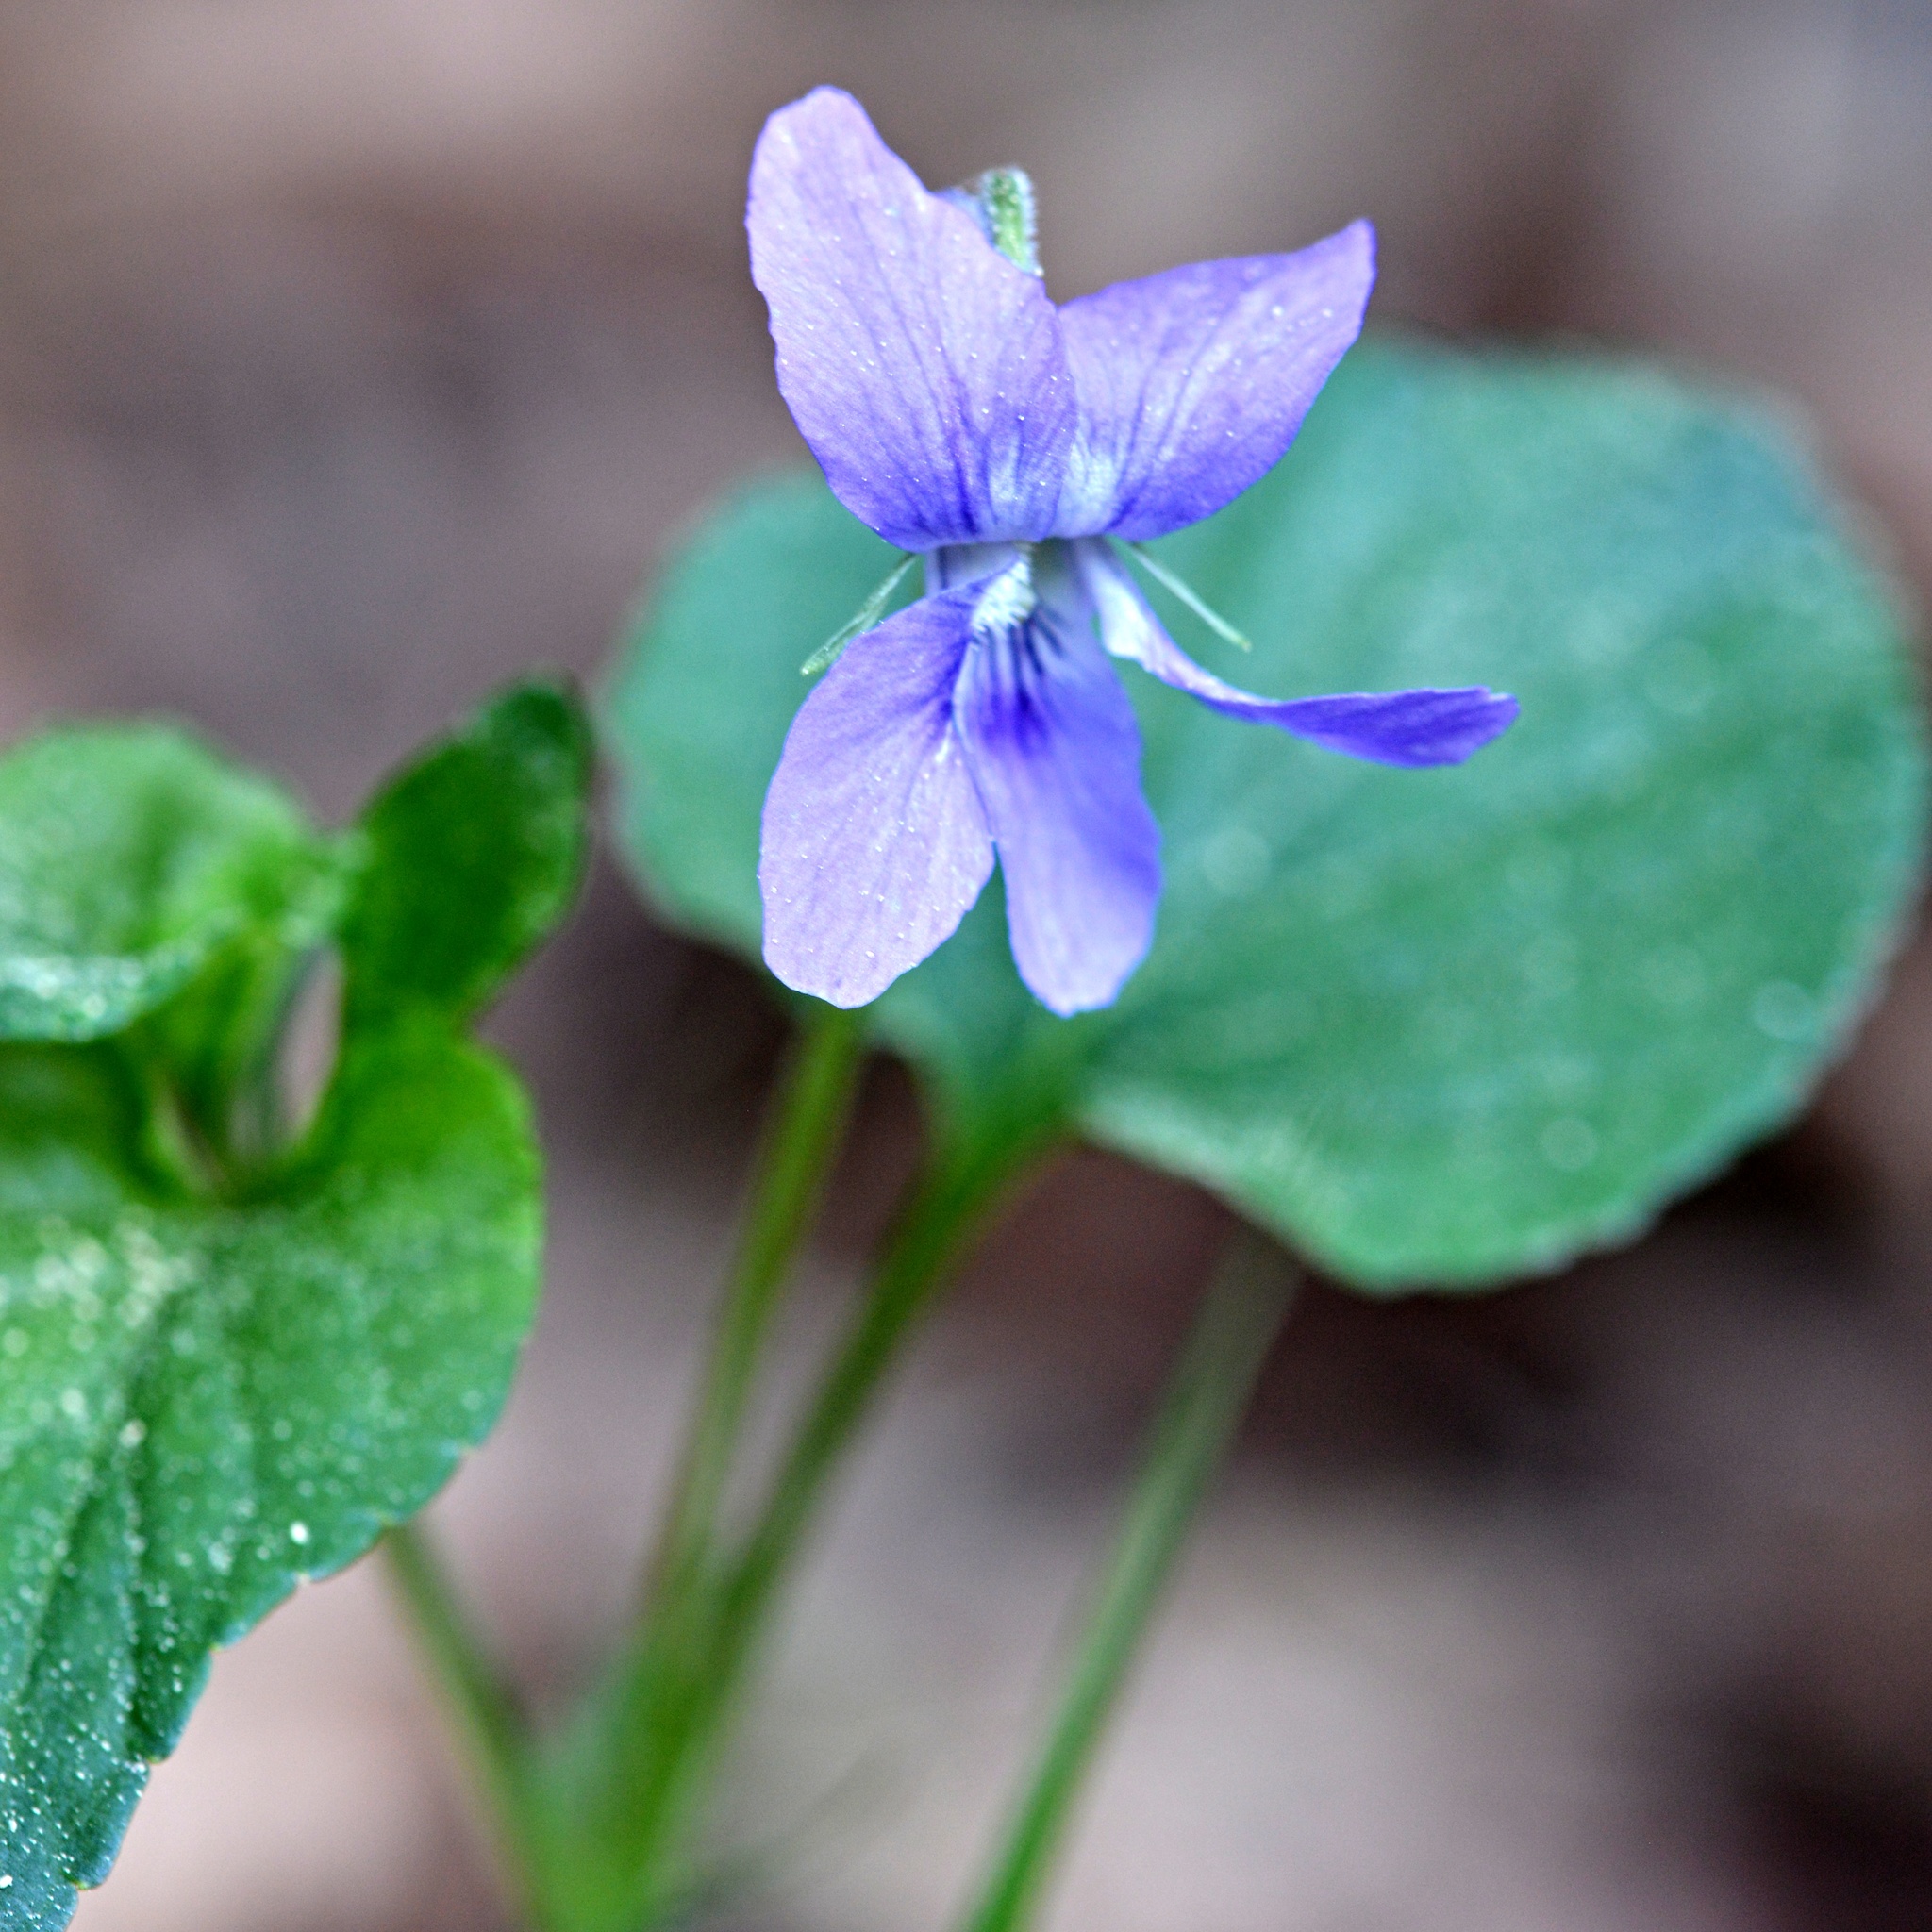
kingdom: Plantae
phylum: Tracheophyta
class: Magnoliopsida
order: Malpighiales
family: Violaceae
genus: Viola
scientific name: Viola riviniana
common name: Common dog-violet
